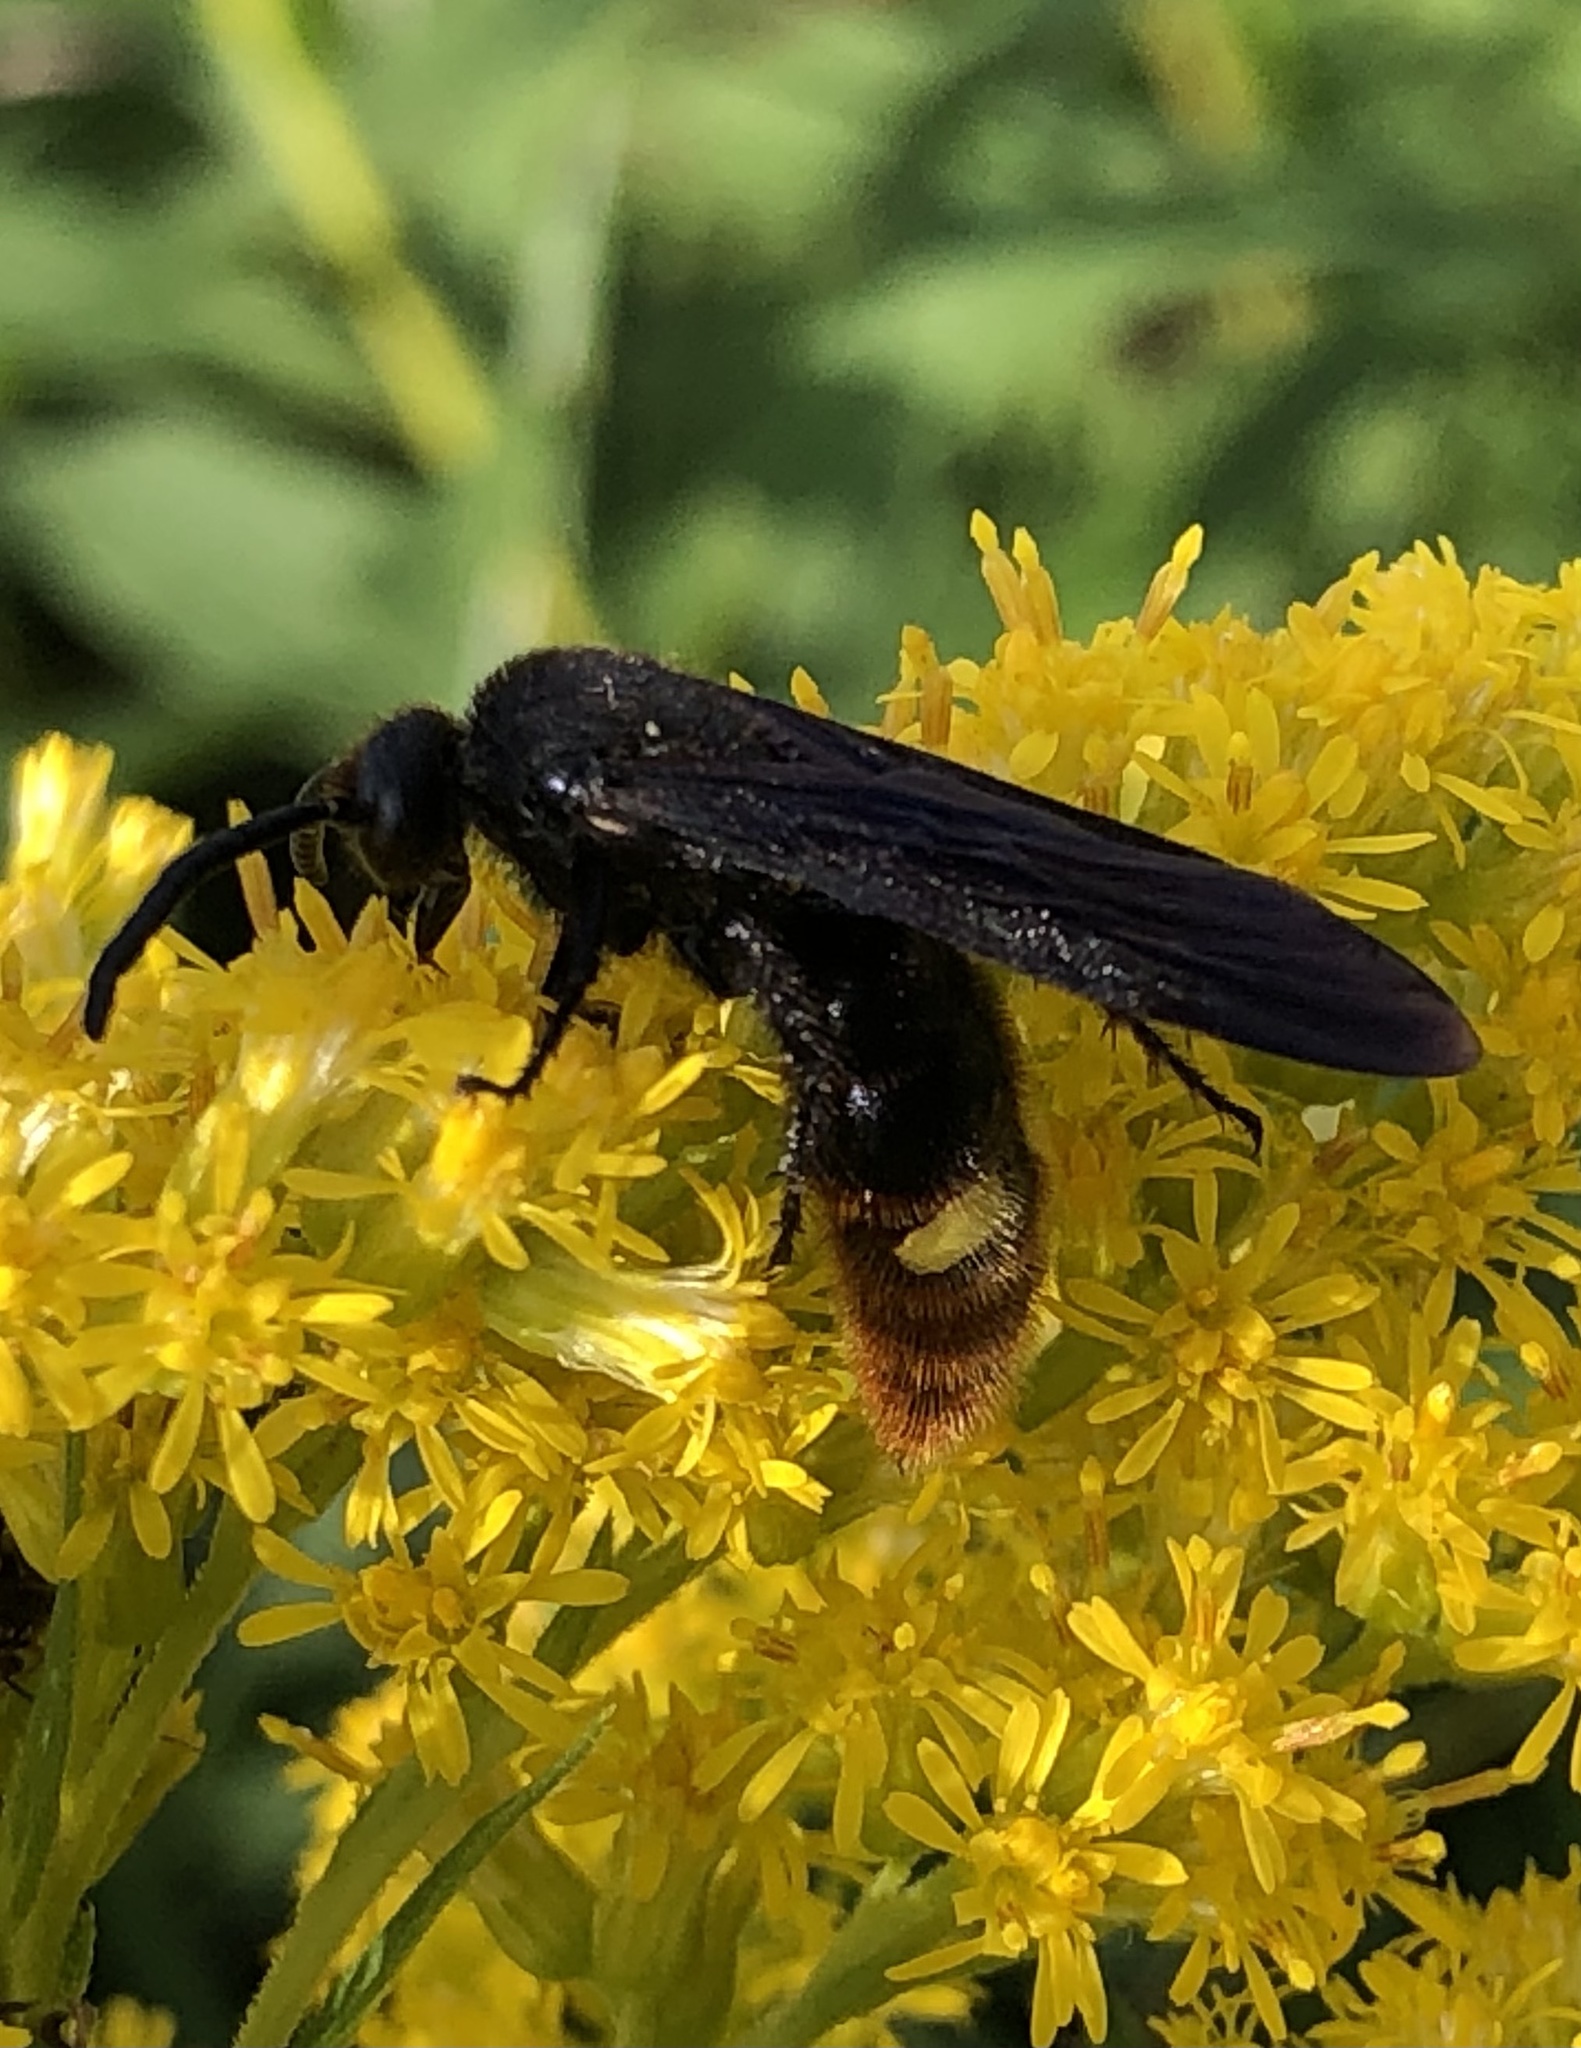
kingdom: Animalia
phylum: Arthropoda
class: Insecta
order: Hymenoptera
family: Scoliidae
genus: Scolia
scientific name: Scolia dubia
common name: Blue-winged scoliid wasp
